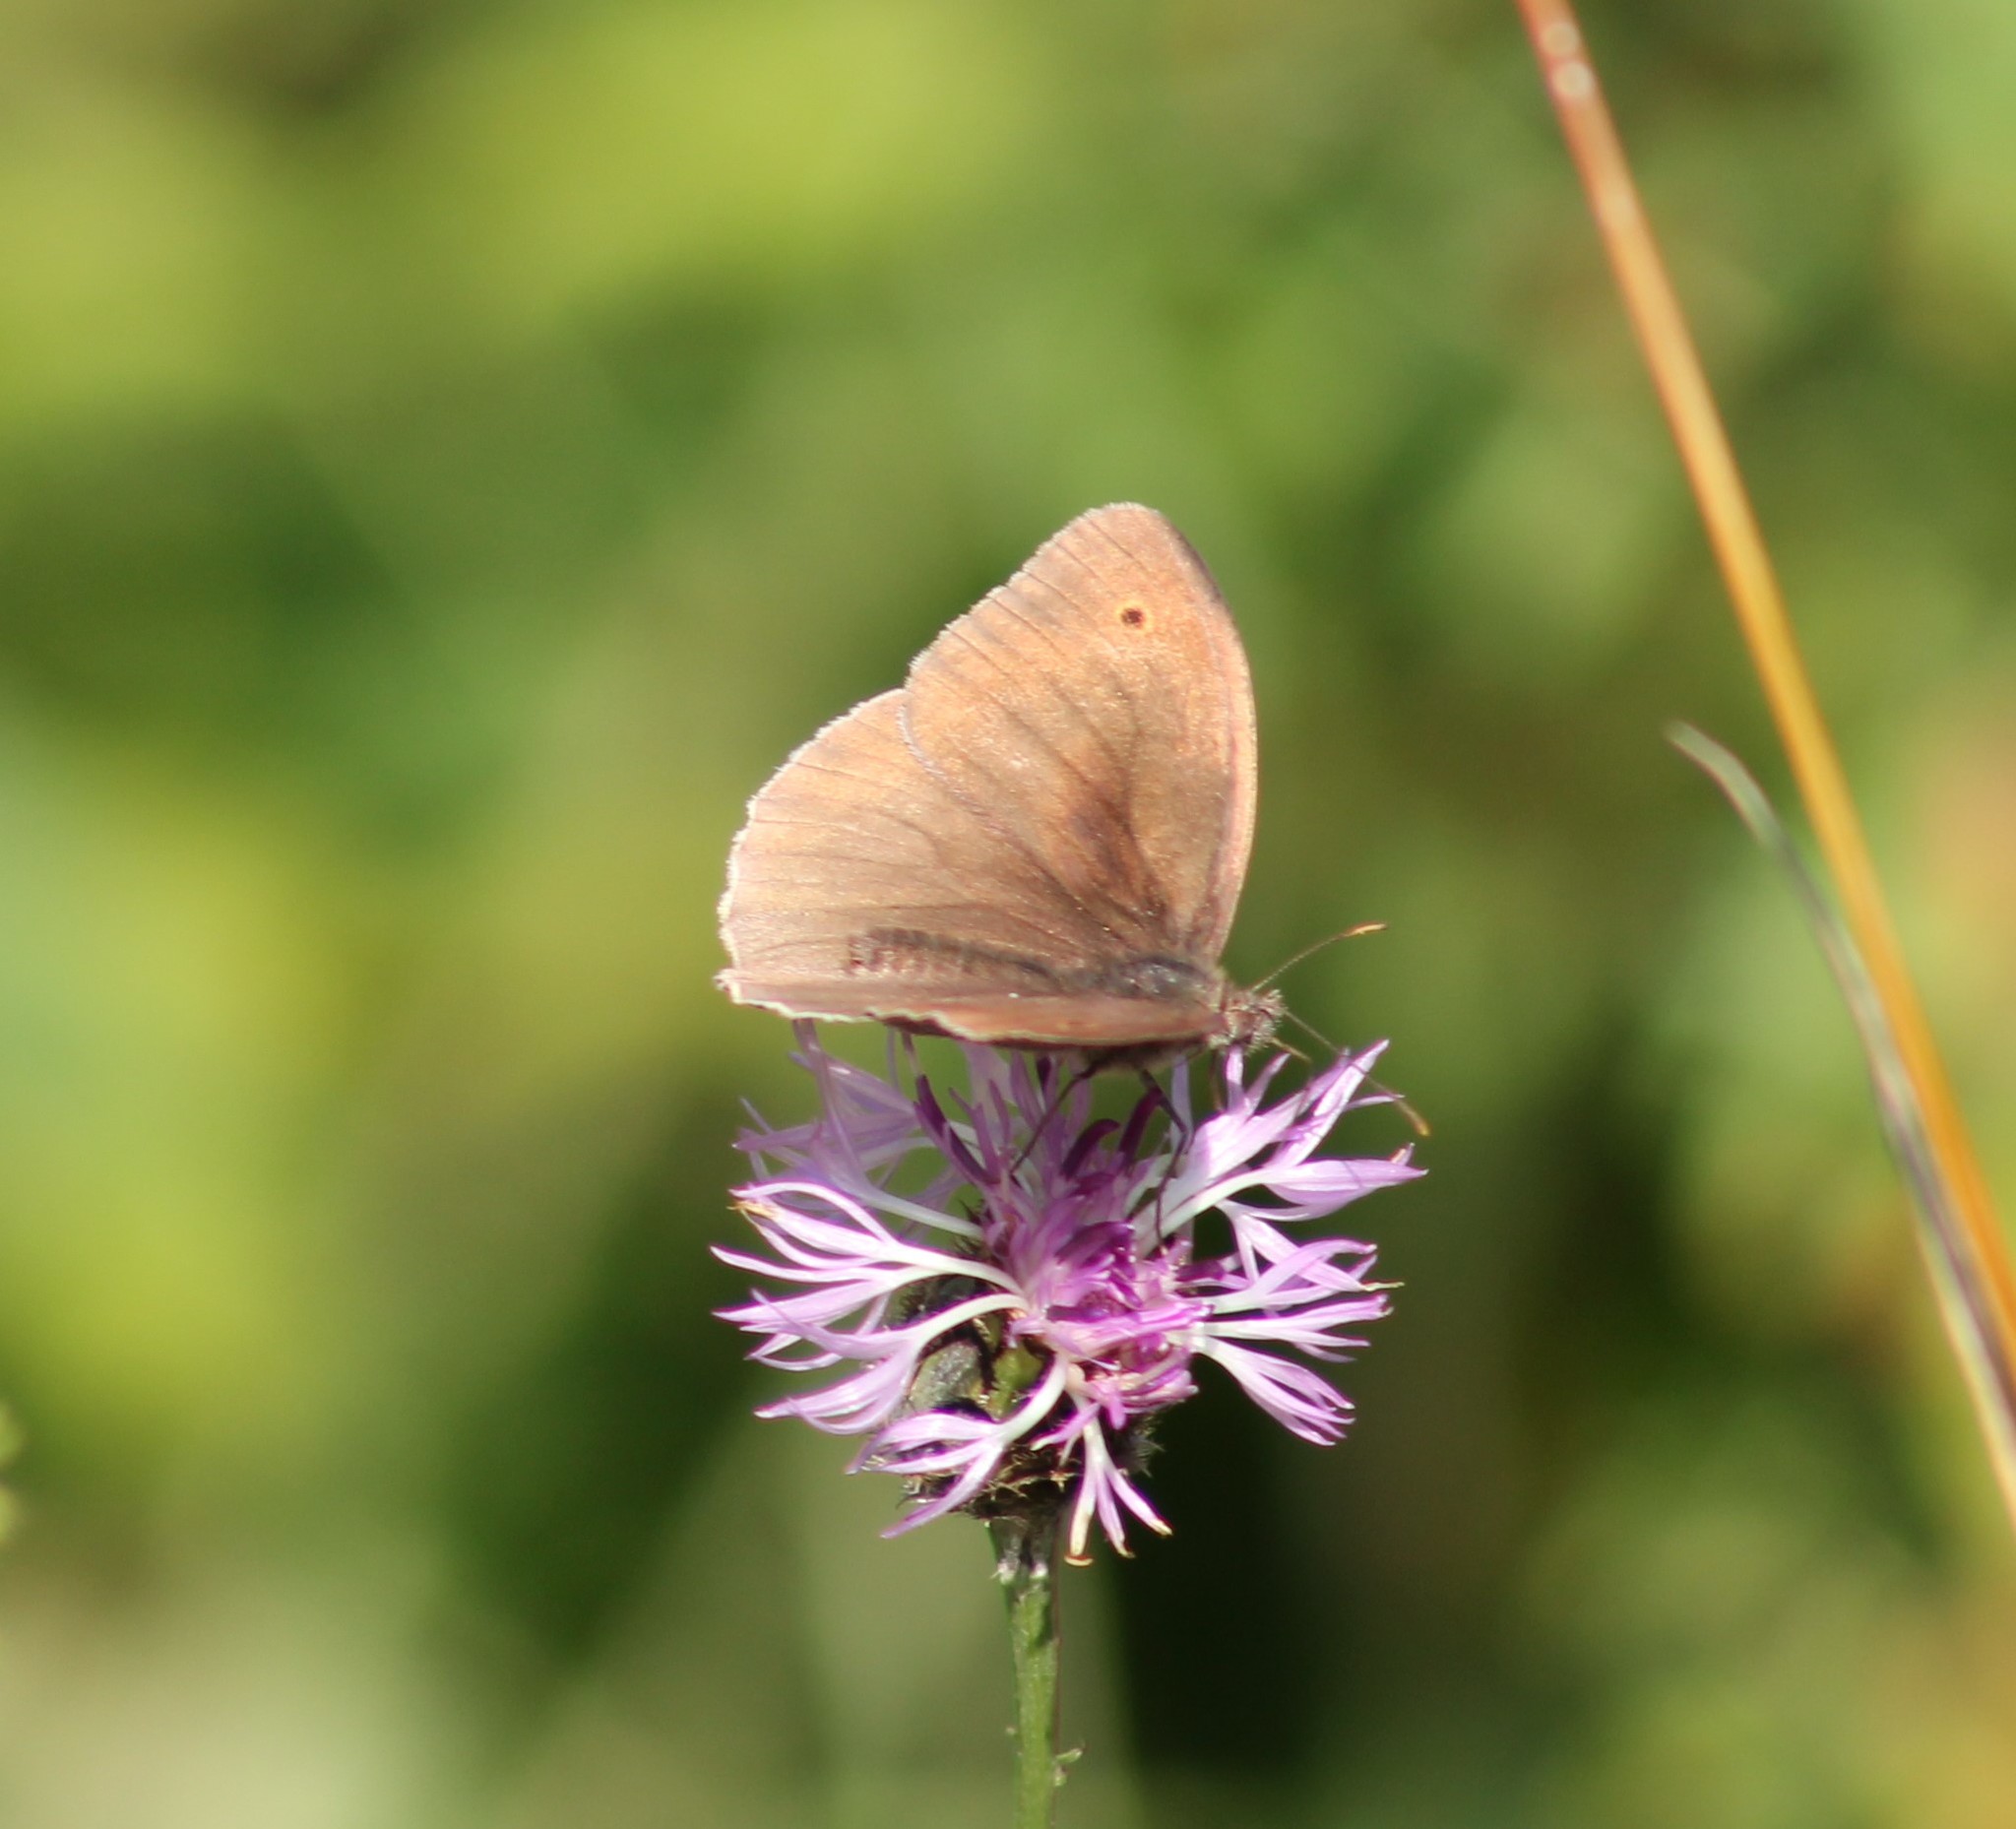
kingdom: Animalia
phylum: Arthropoda
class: Insecta
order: Lepidoptera
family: Nymphalidae
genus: Maniola
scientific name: Maniola jurtina
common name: Meadow brown
